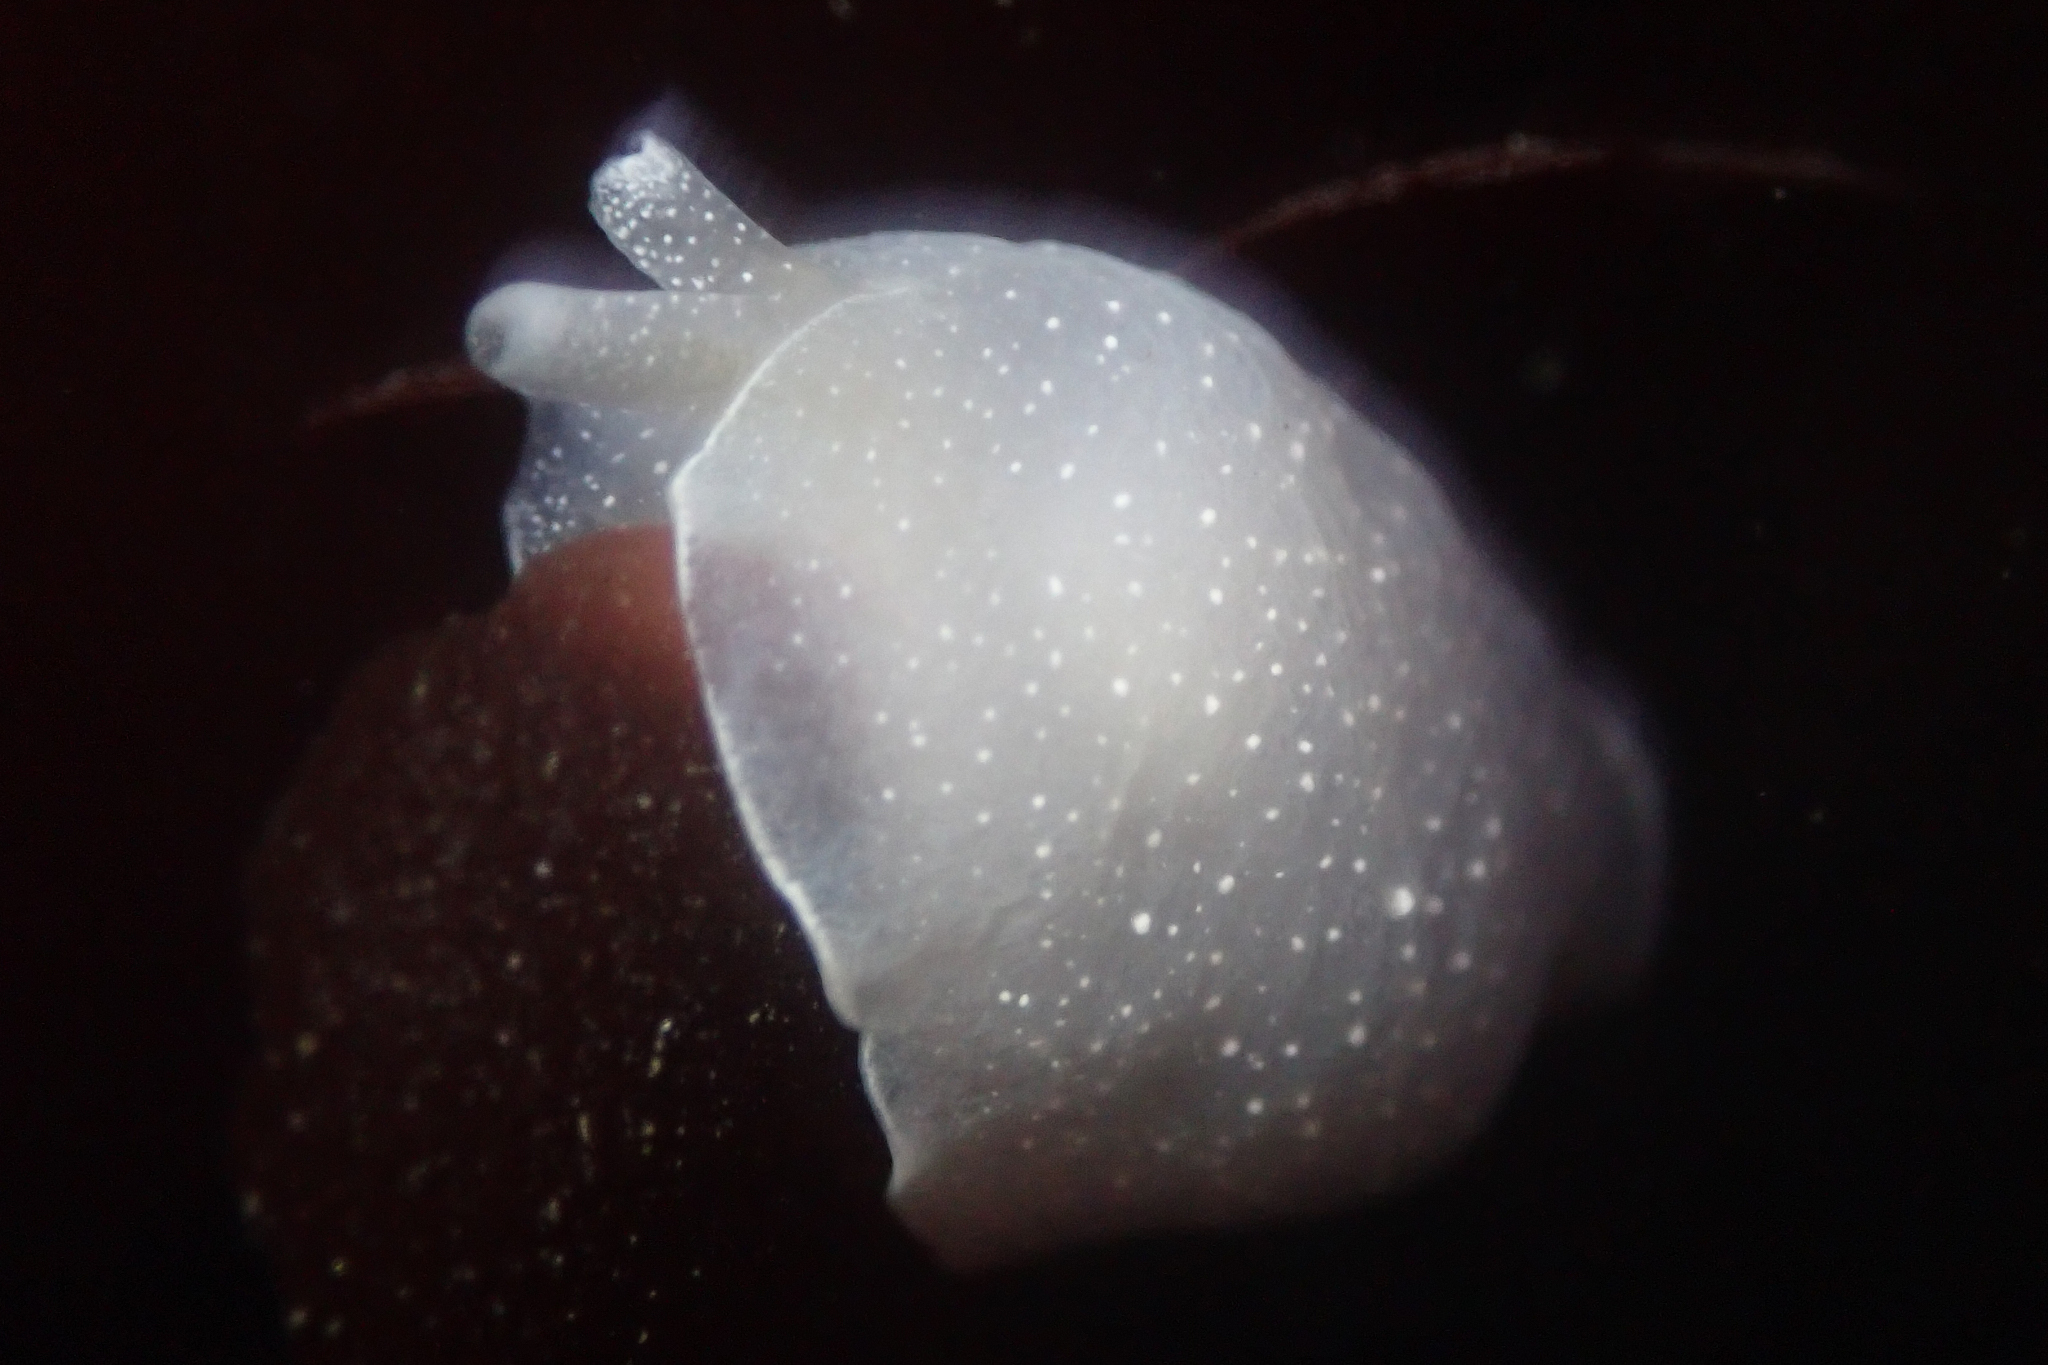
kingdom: Animalia
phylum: Mollusca
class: Gastropoda
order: Pleurobranchida
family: Pleurobranchidae
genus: Boreoberthella
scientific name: Boreoberthella
